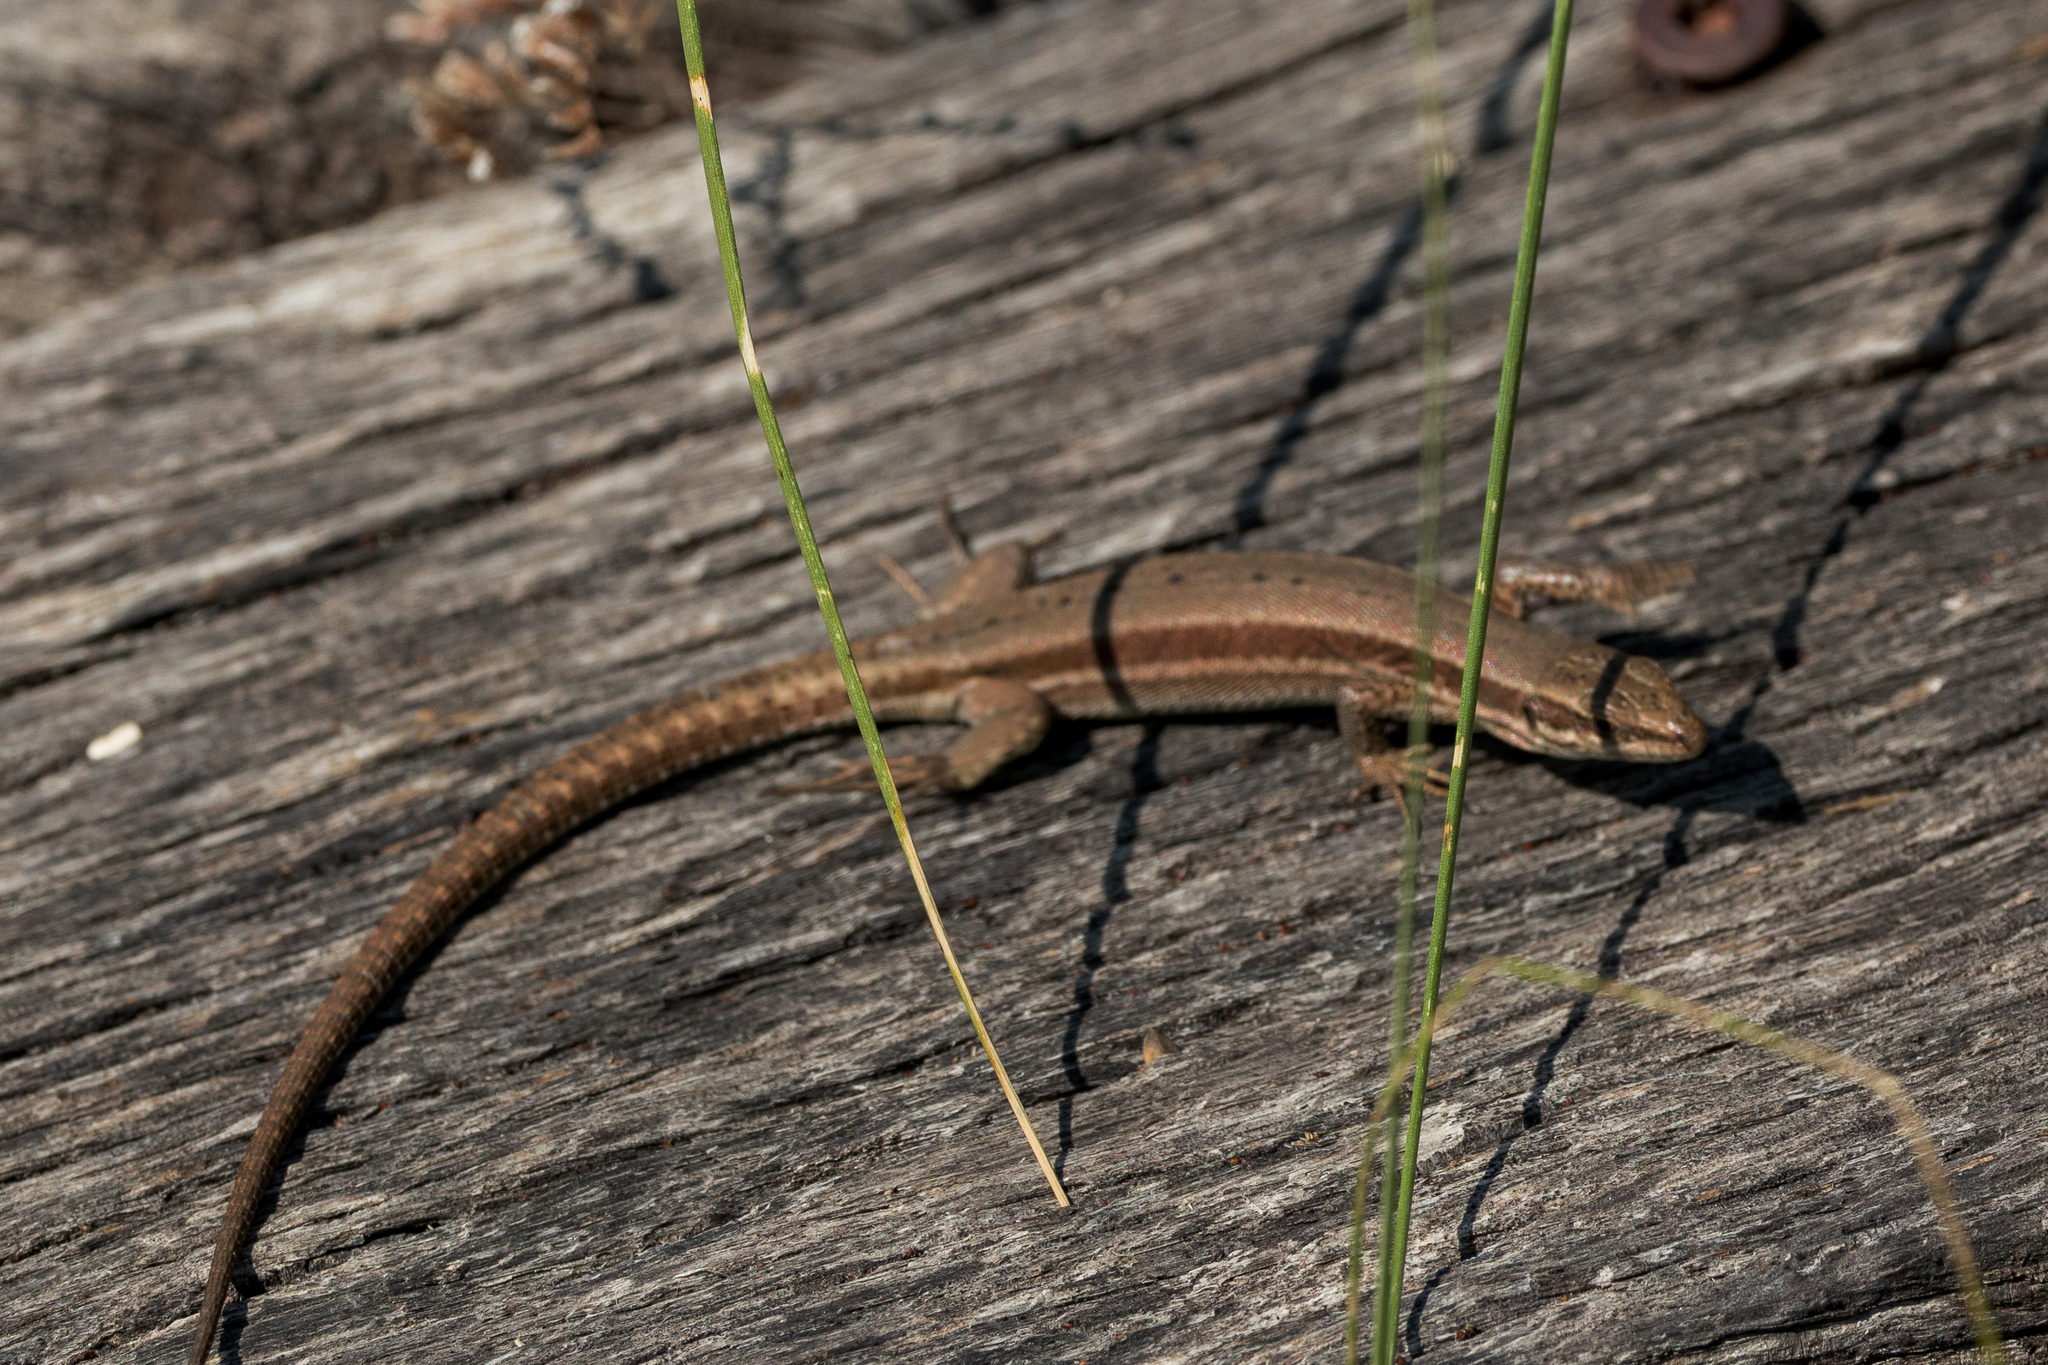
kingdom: Animalia
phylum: Chordata
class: Squamata
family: Lacertidae
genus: Podarcis
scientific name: Podarcis muralis
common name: Common wall lizard
